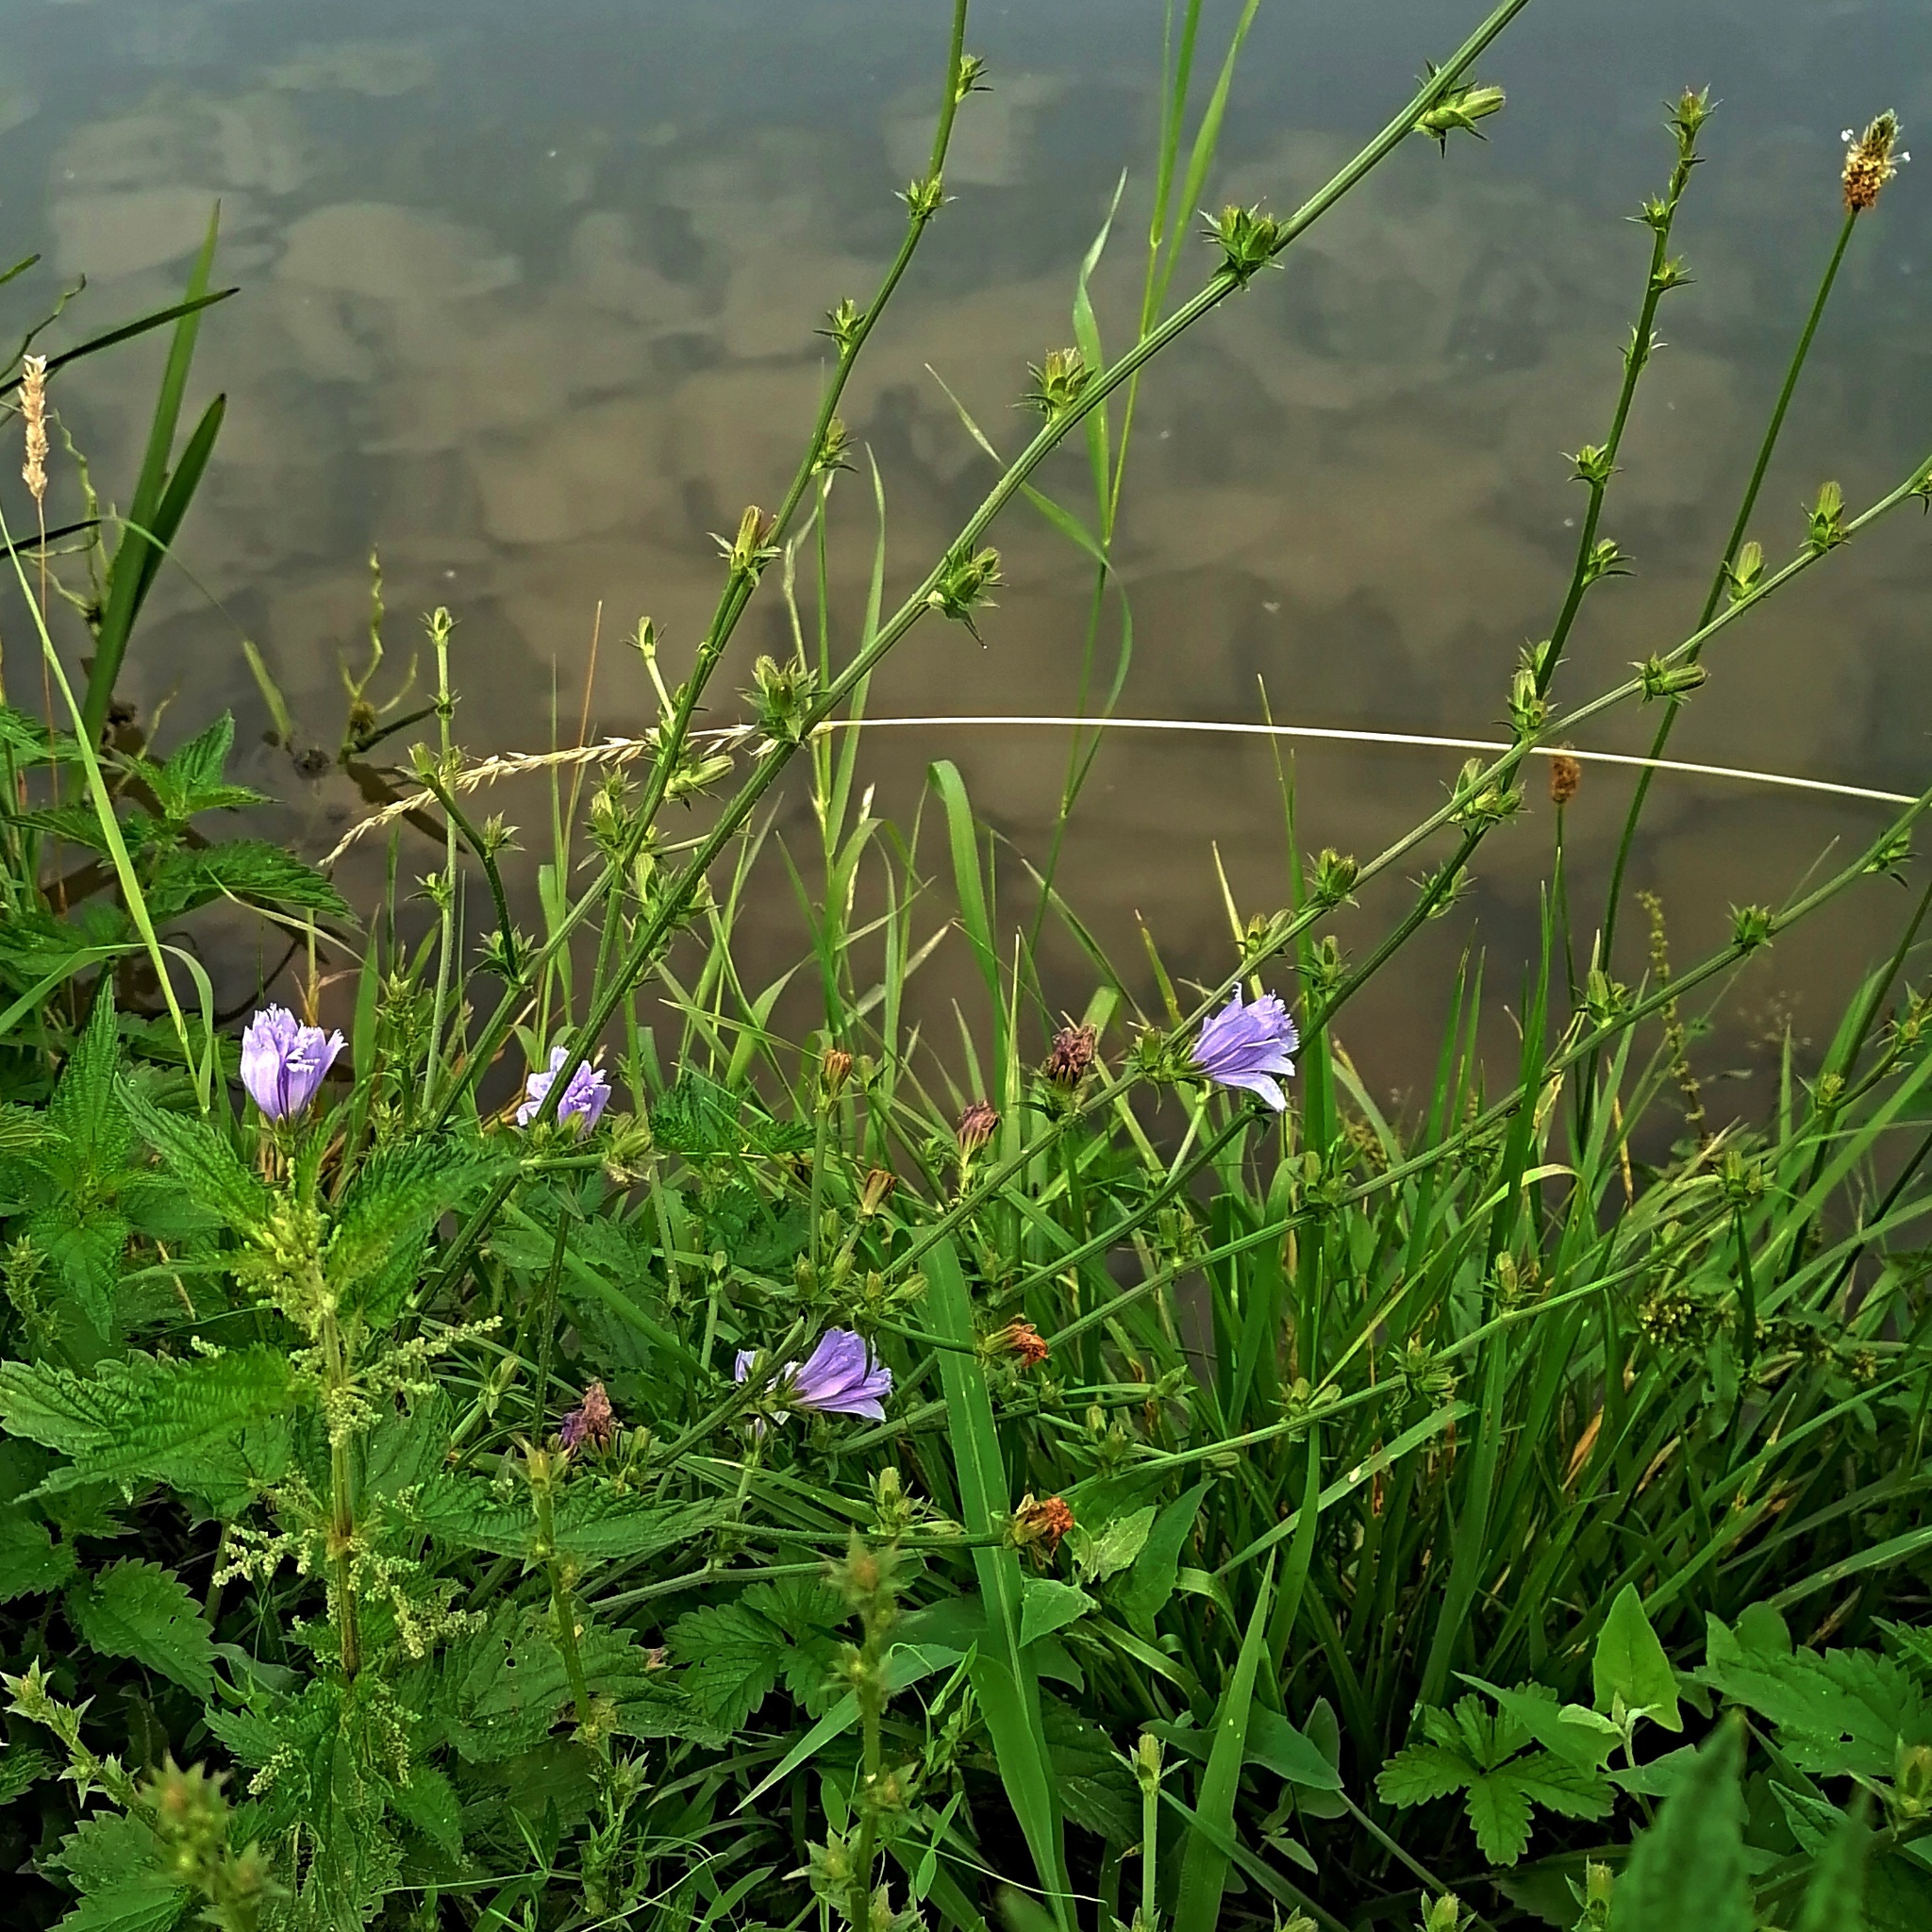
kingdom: Plantae
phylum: Tracheophyta
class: Magnoliopsida
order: Asterales
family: Asteraceae
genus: Cichorium
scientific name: Cichorium intybus
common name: Chicory
